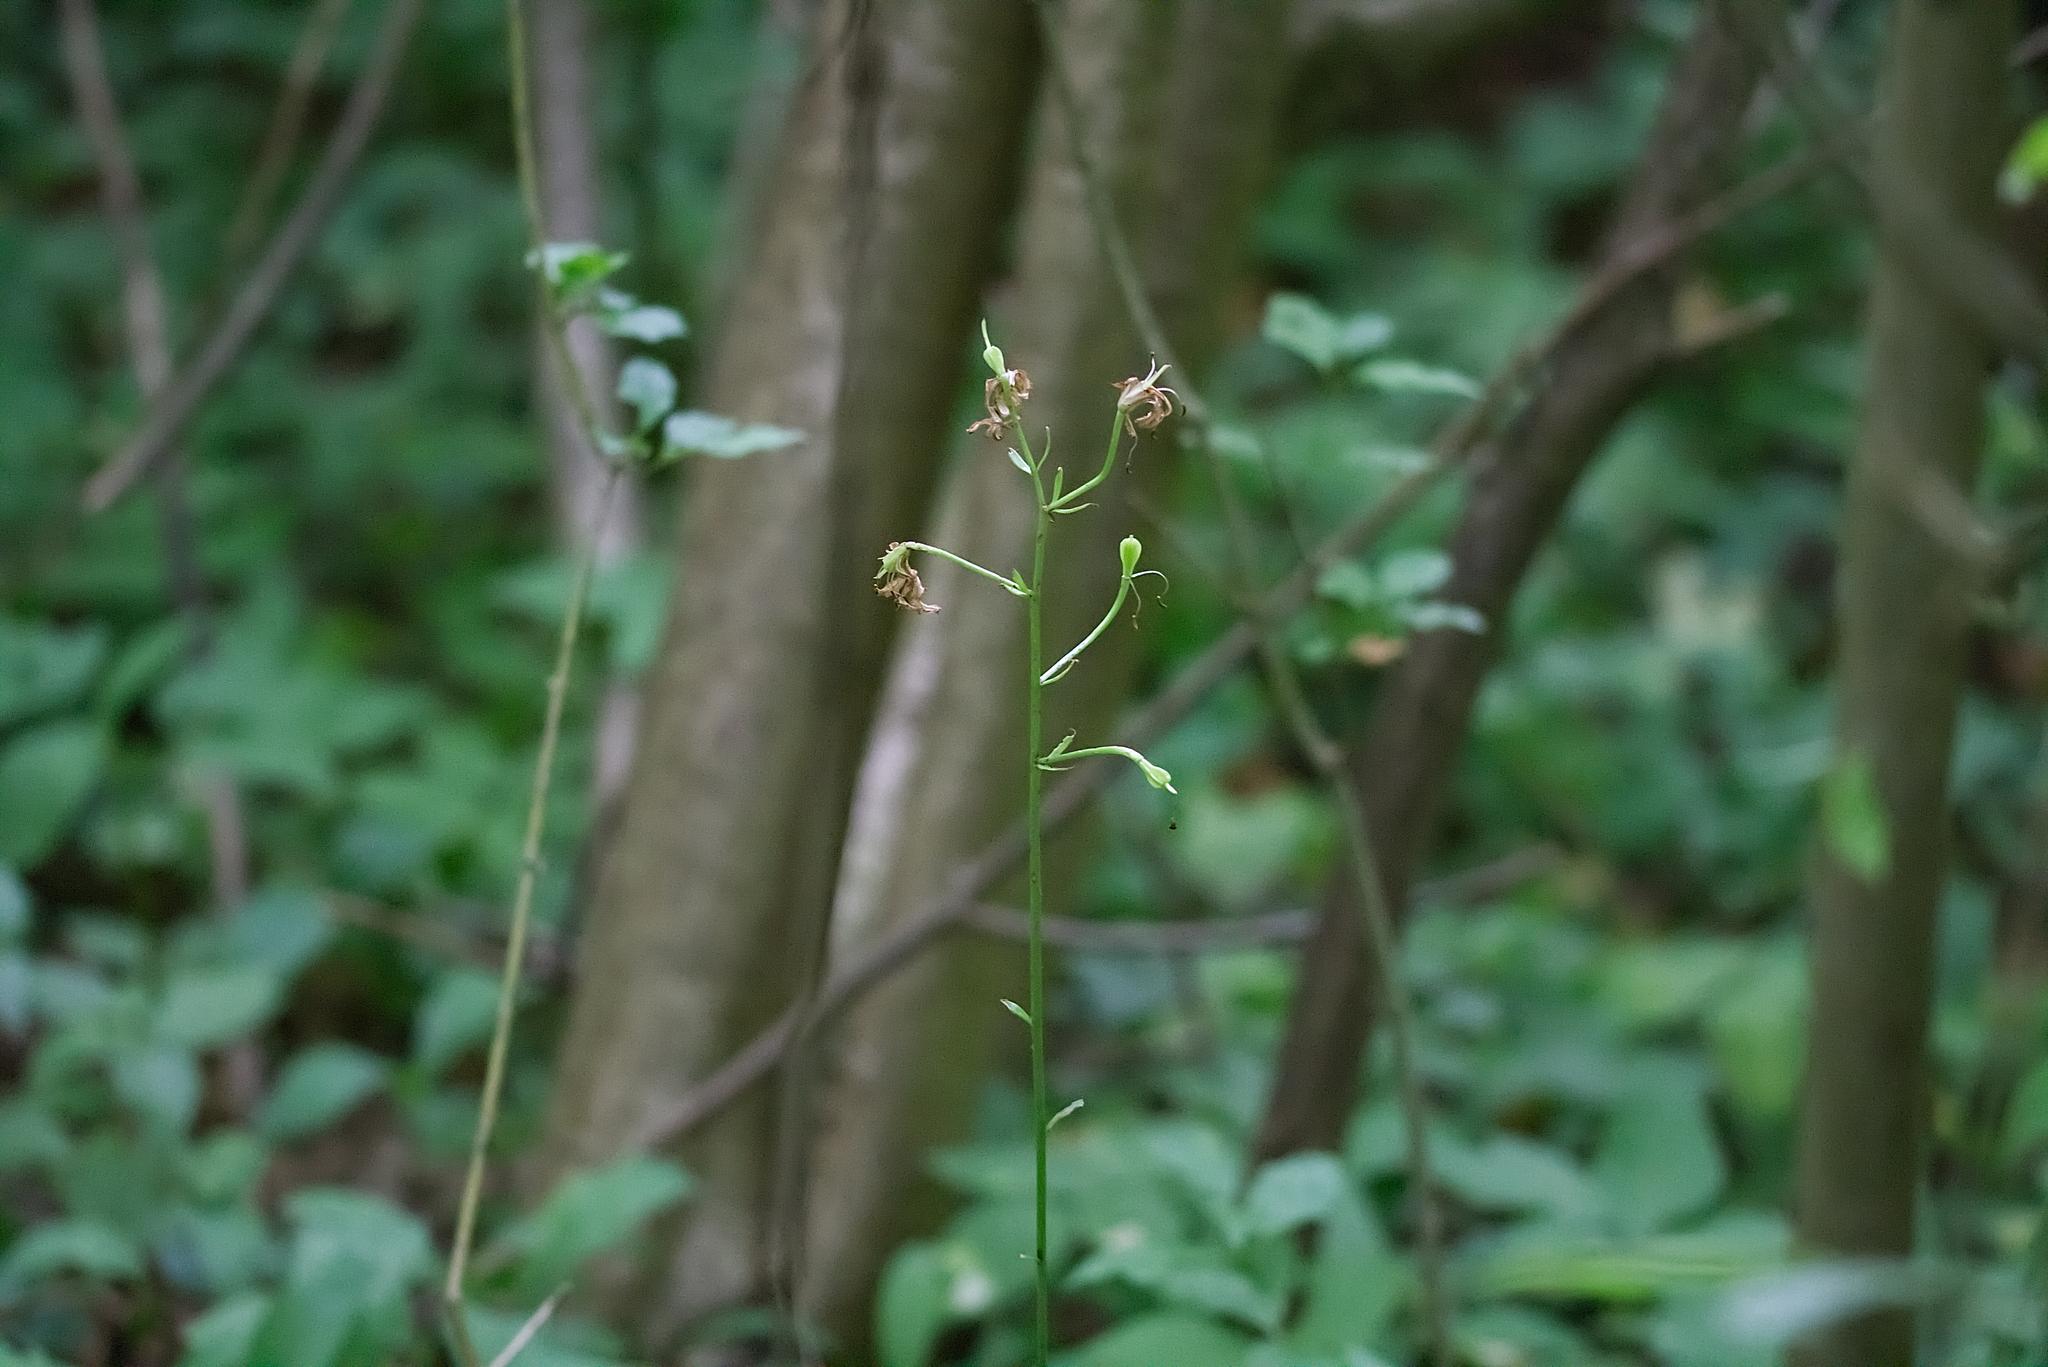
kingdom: Plantae
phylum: Tracheophyta
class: Liliopsida
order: Liliales
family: Liliaceae
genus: Lilium
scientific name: Lilium martagon
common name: Martagon lily
